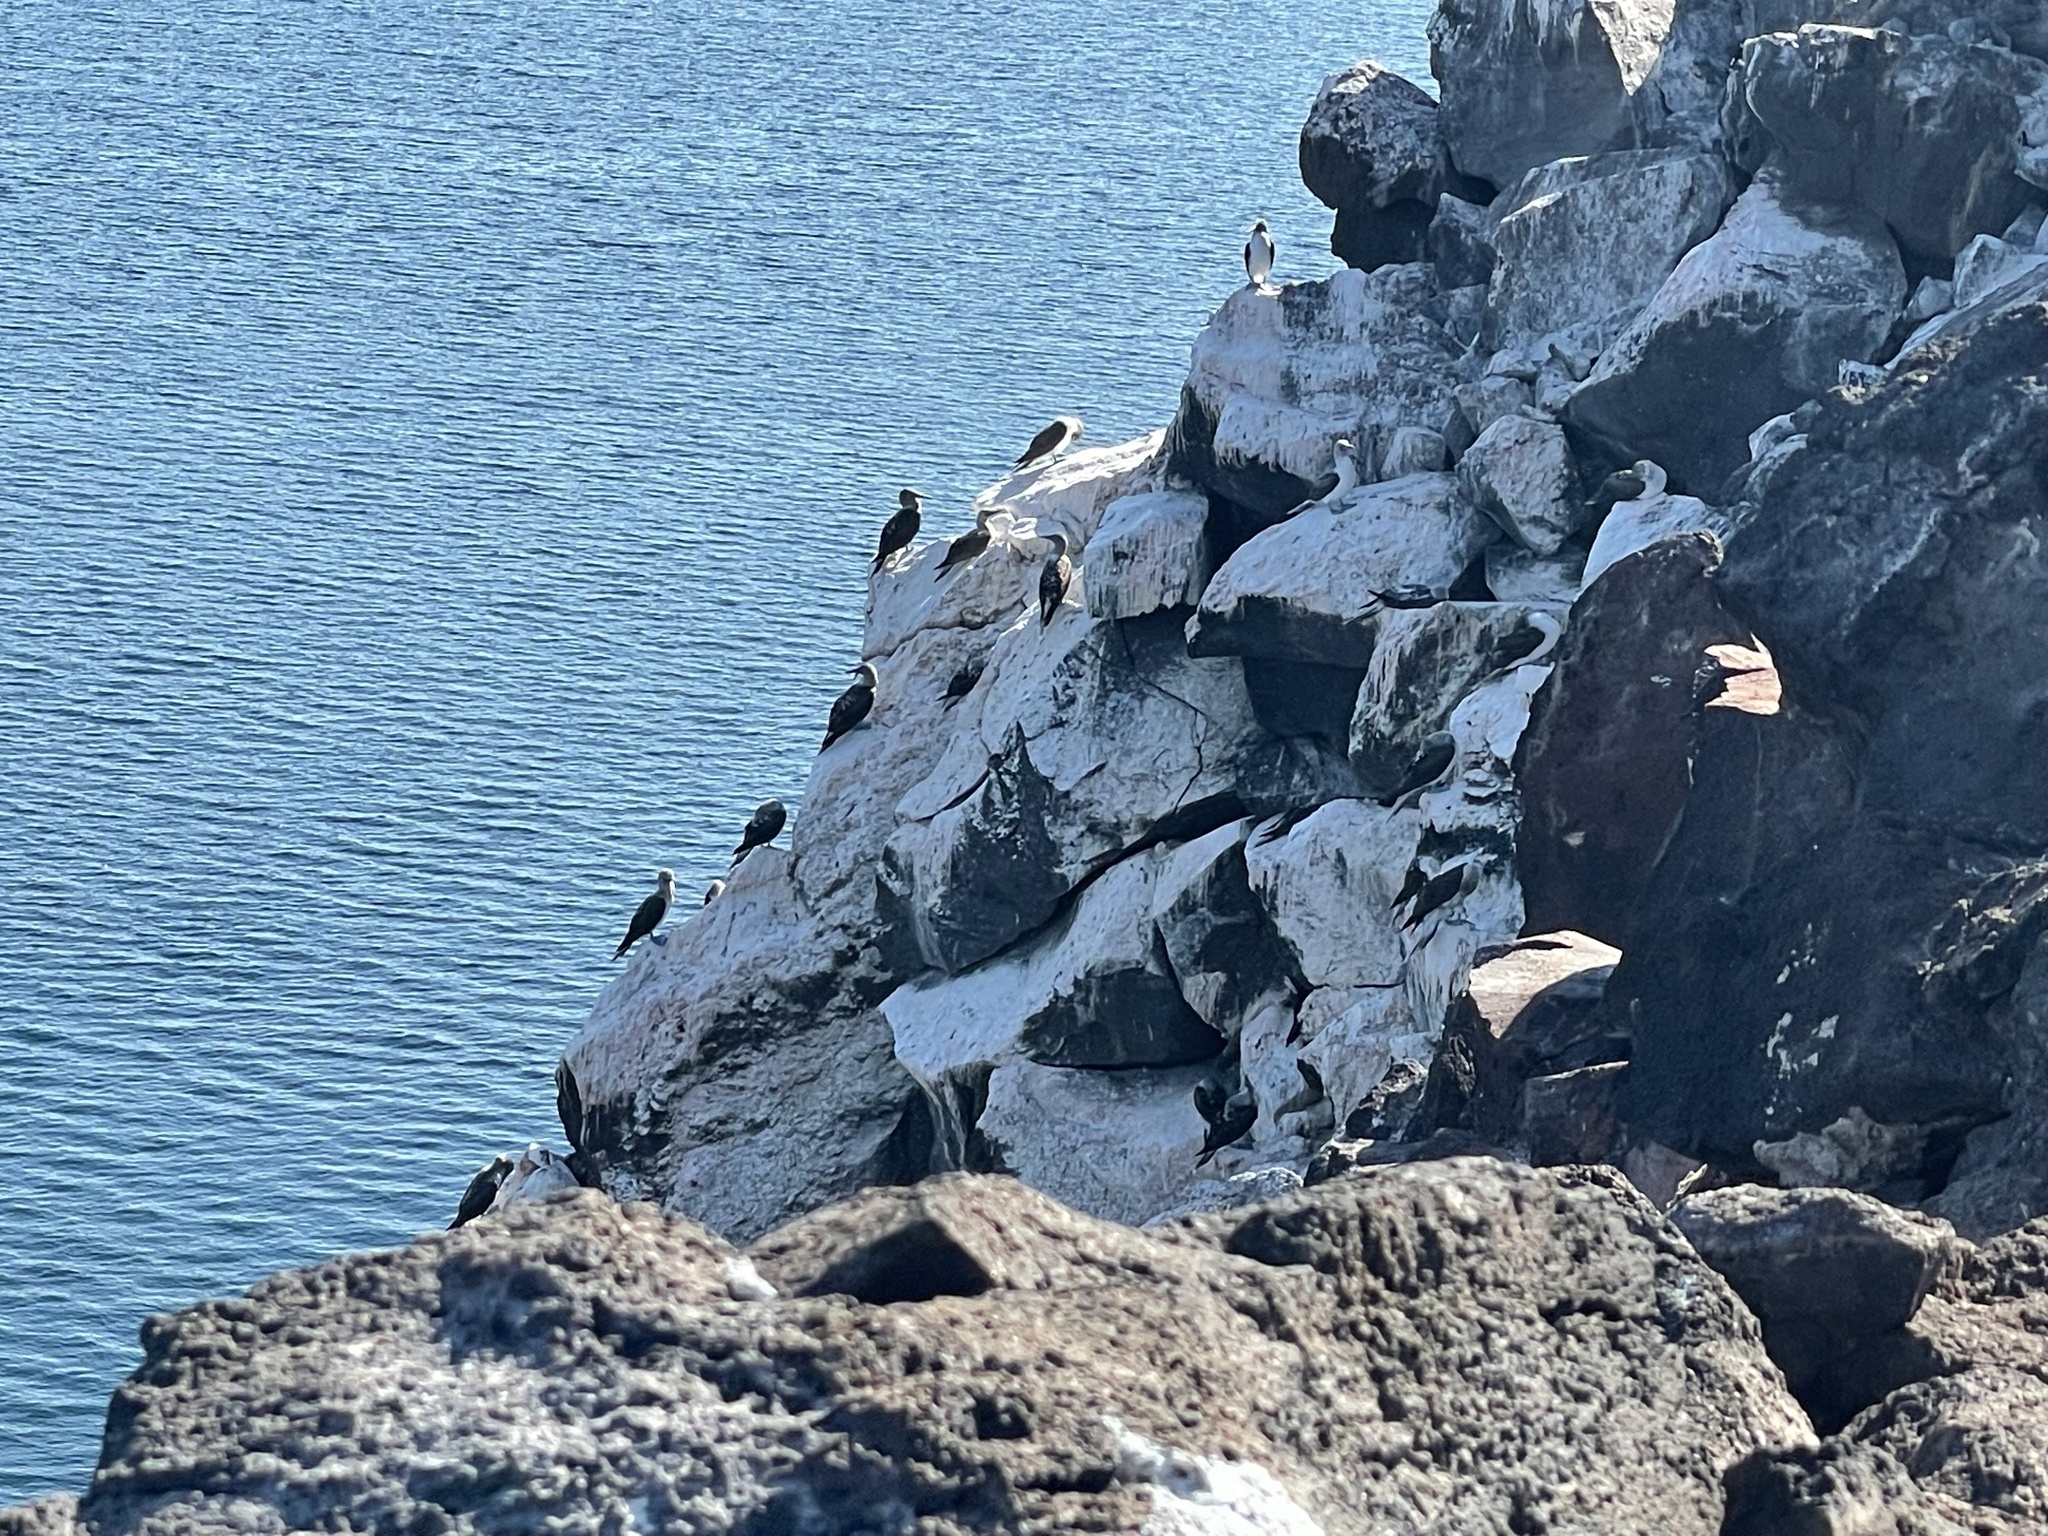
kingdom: Animalia
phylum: Chordata
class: Aves
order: Suliformes
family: Sulidae
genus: Sula
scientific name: Sula nebouxii
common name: Blue-footed booby
